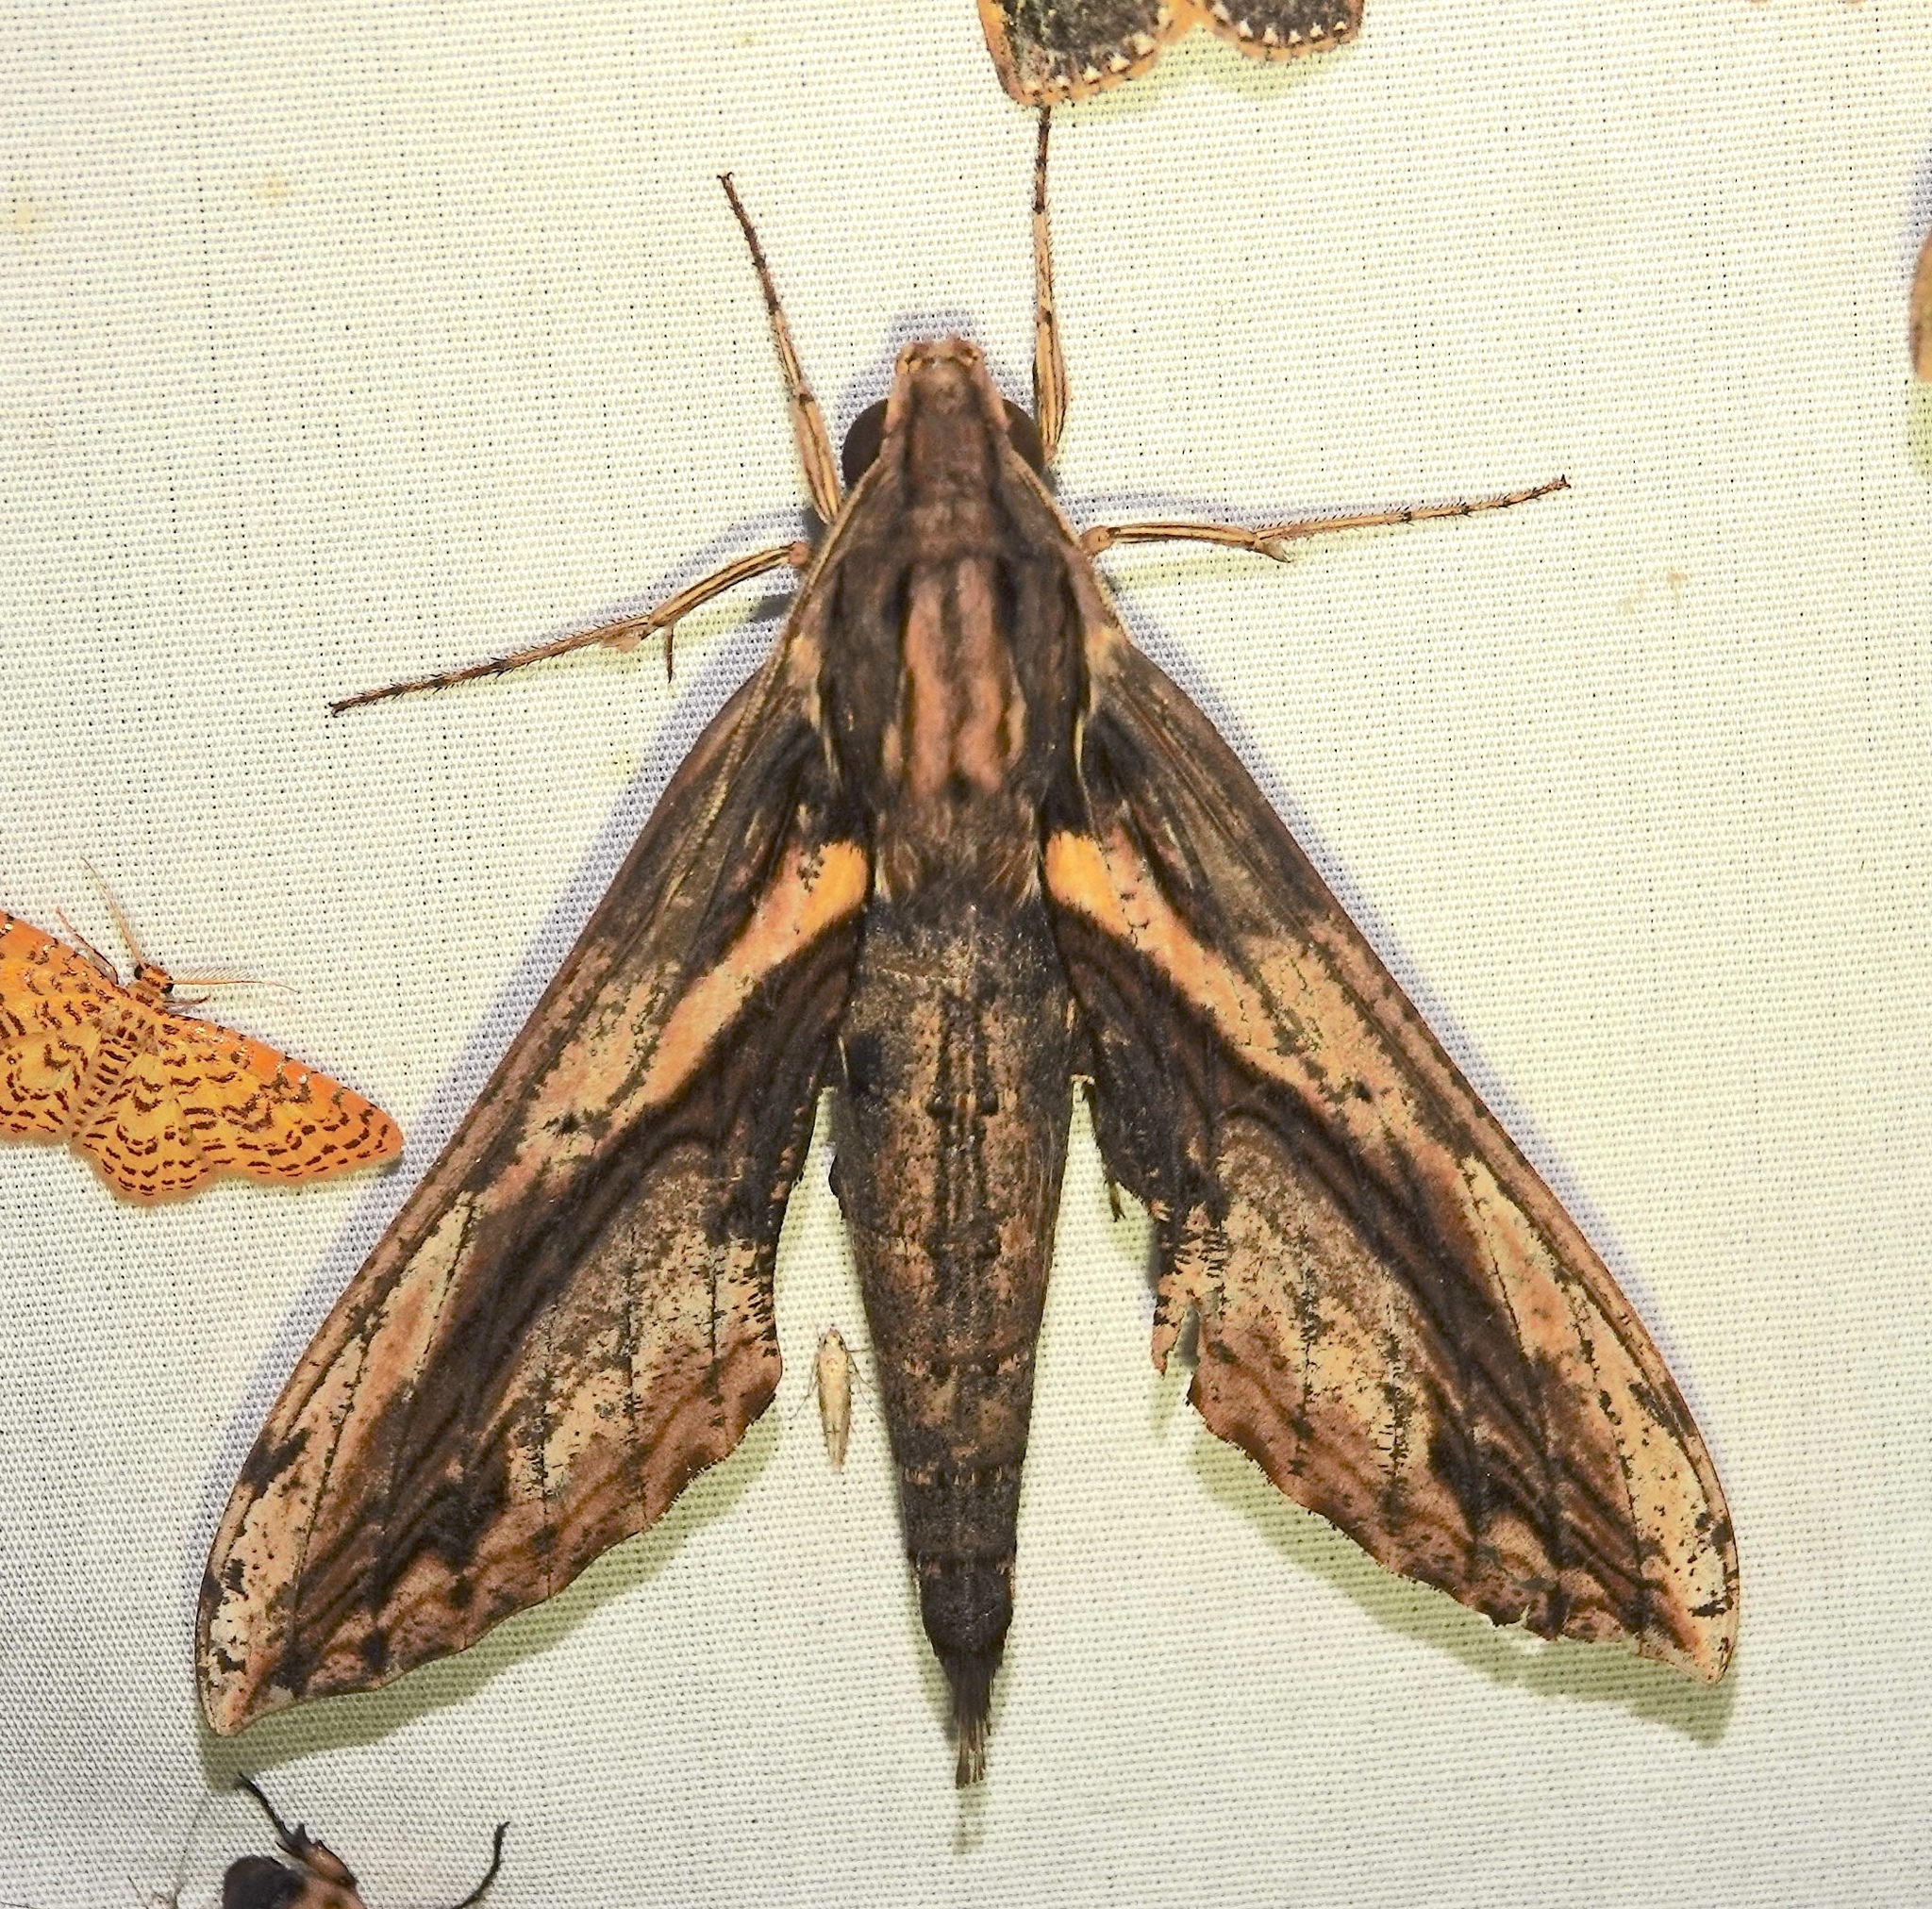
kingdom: Animalia
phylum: Arthropoda
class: Insecta
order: Lepidoptera
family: Sphingidae
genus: Xylophanes
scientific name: Xylophanes ceratomioides
